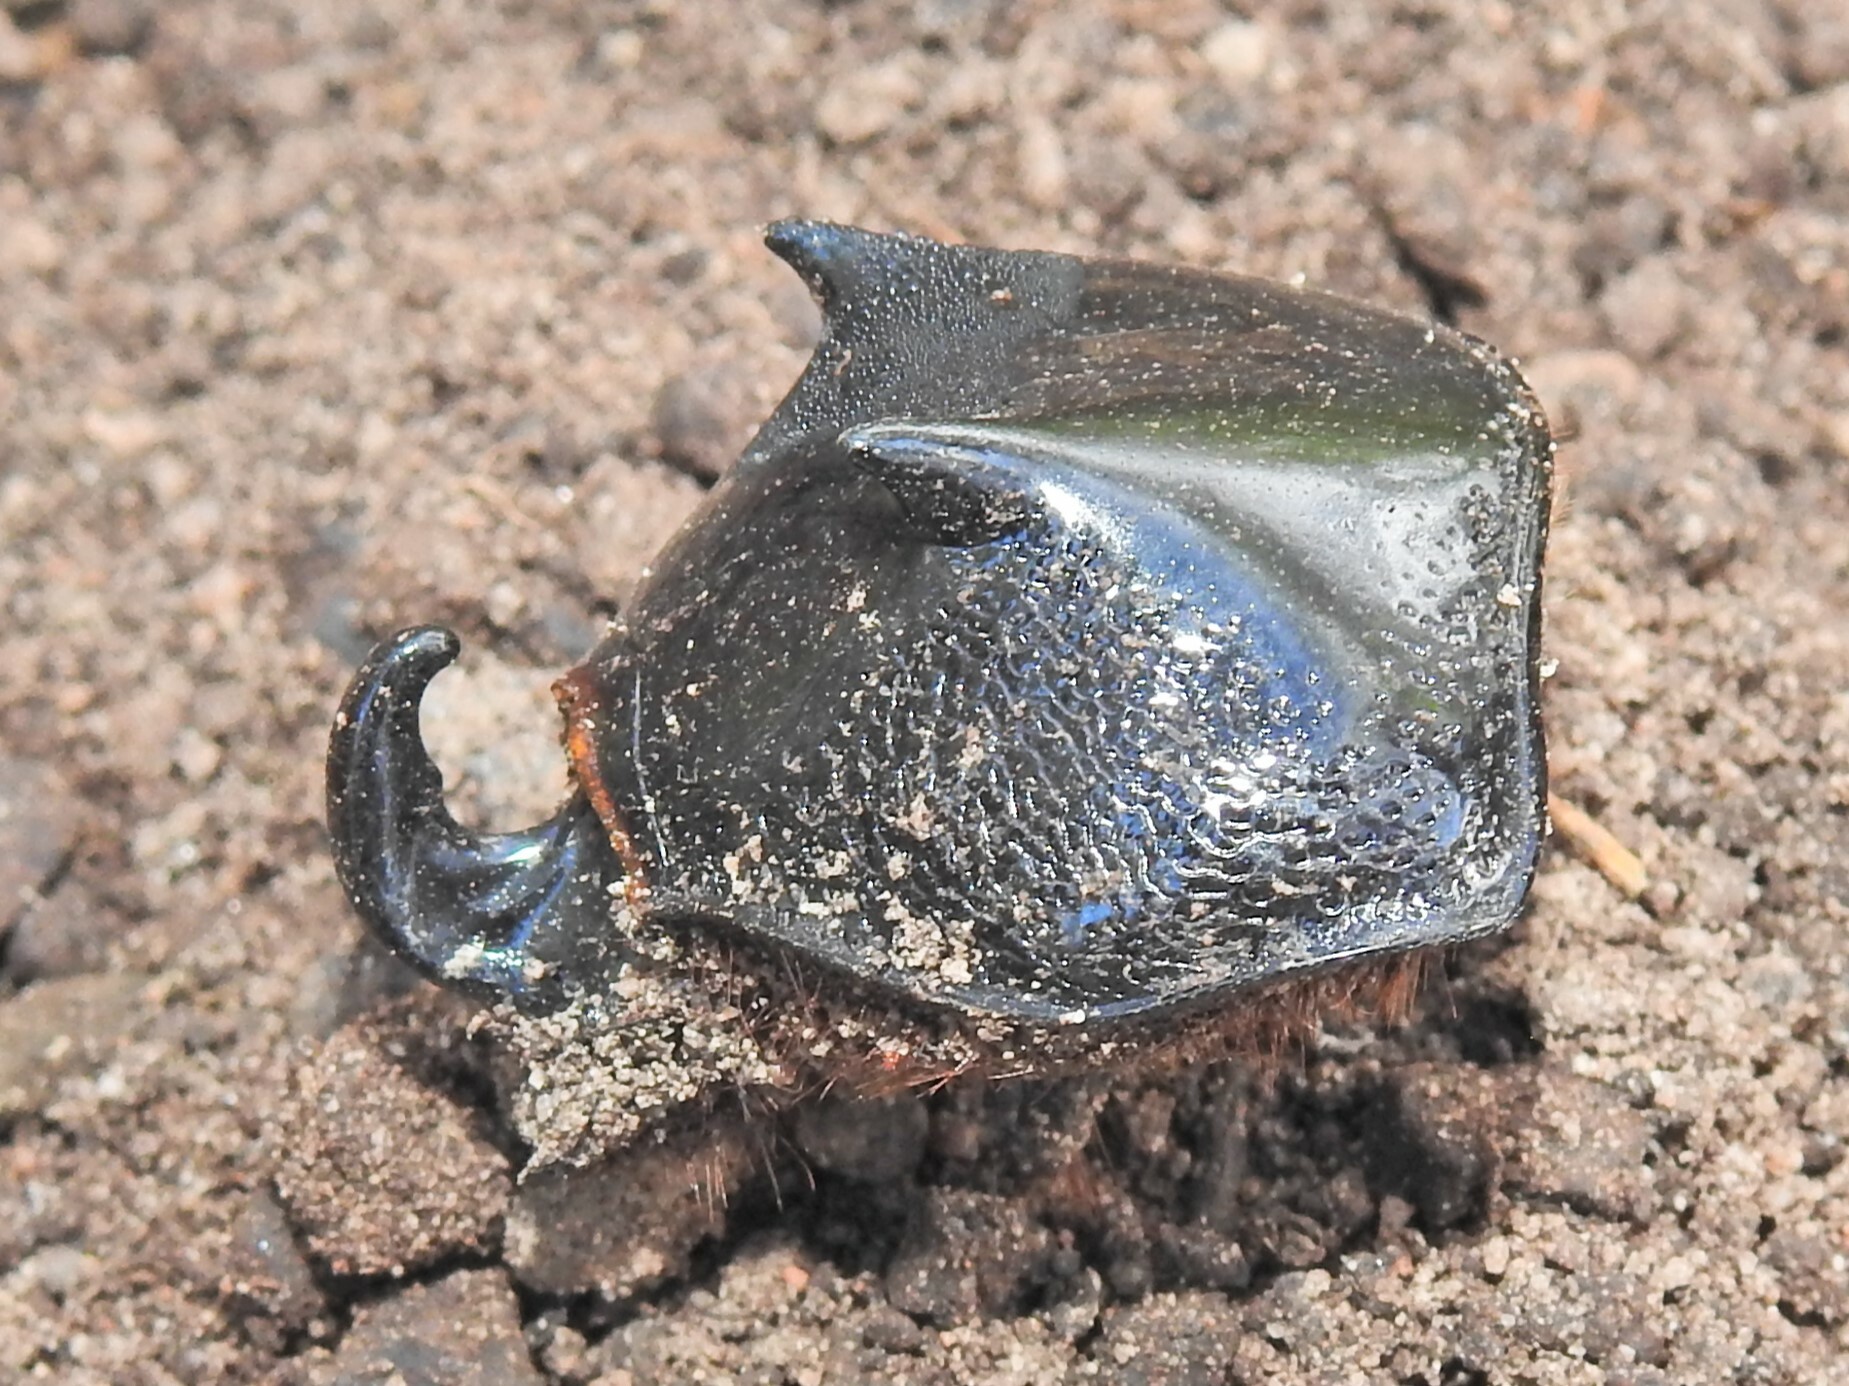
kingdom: Animalia
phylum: Arthropoda
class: Insecta
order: Coleoptera
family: Scarabaeidae
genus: Haploscapanes
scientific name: Haploscapanes australicus
